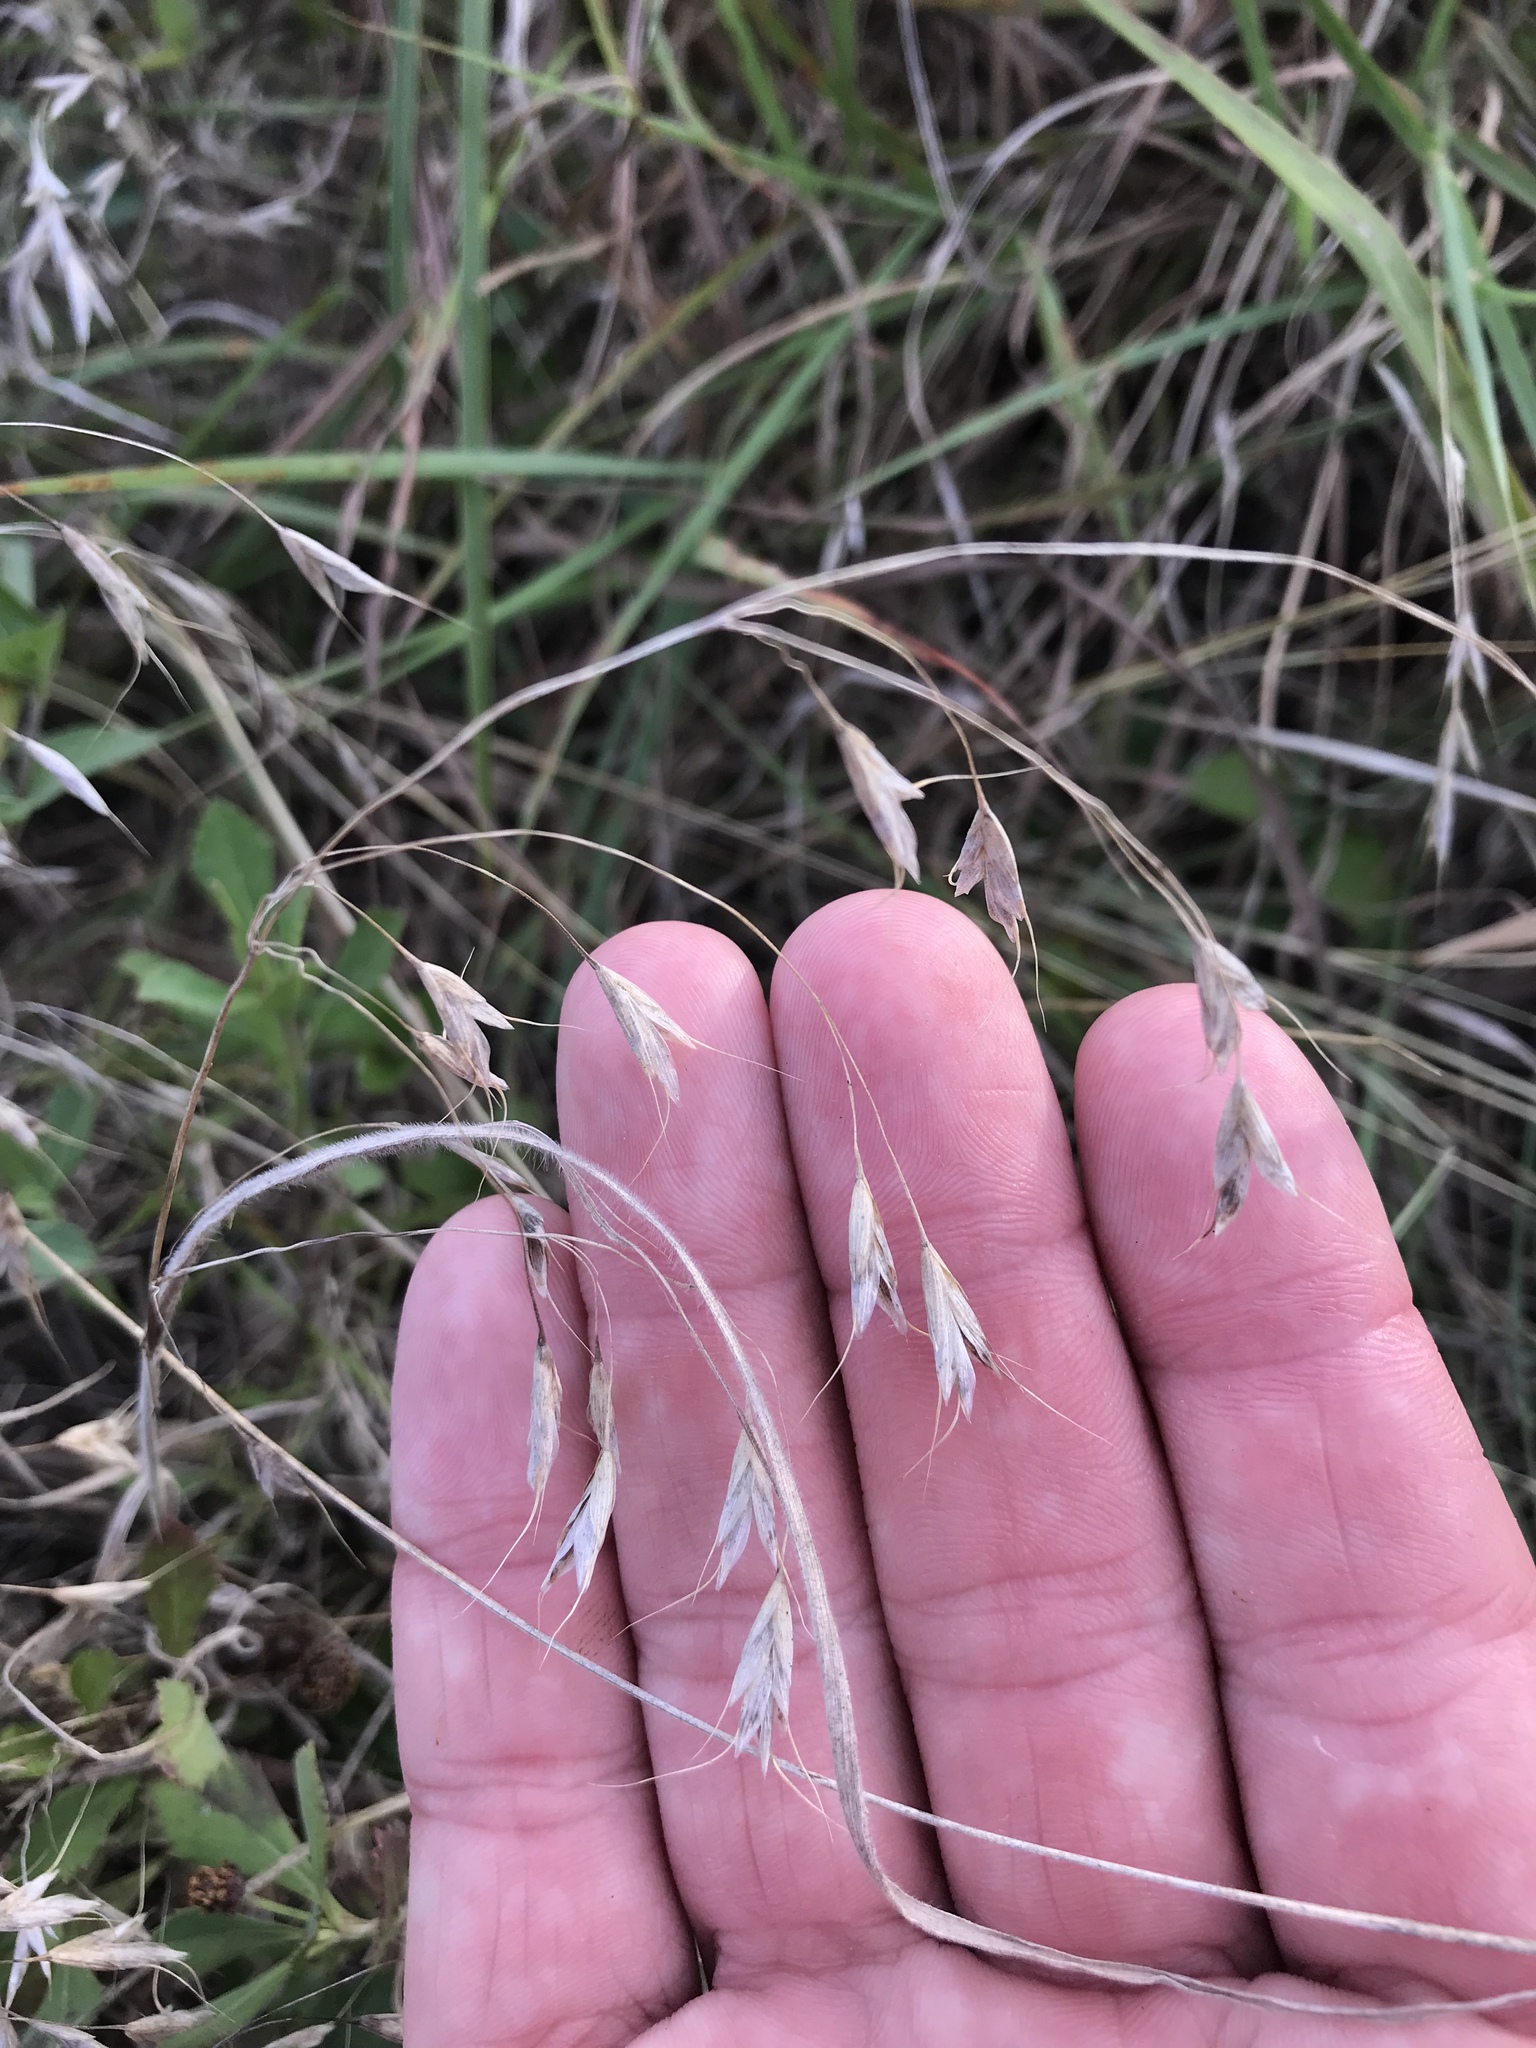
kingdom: Plantae
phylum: Tracheophyta
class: Liliopsida
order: Poales
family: Poaceae
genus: Bromus
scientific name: Bromus japonicus
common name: Japanese brome
